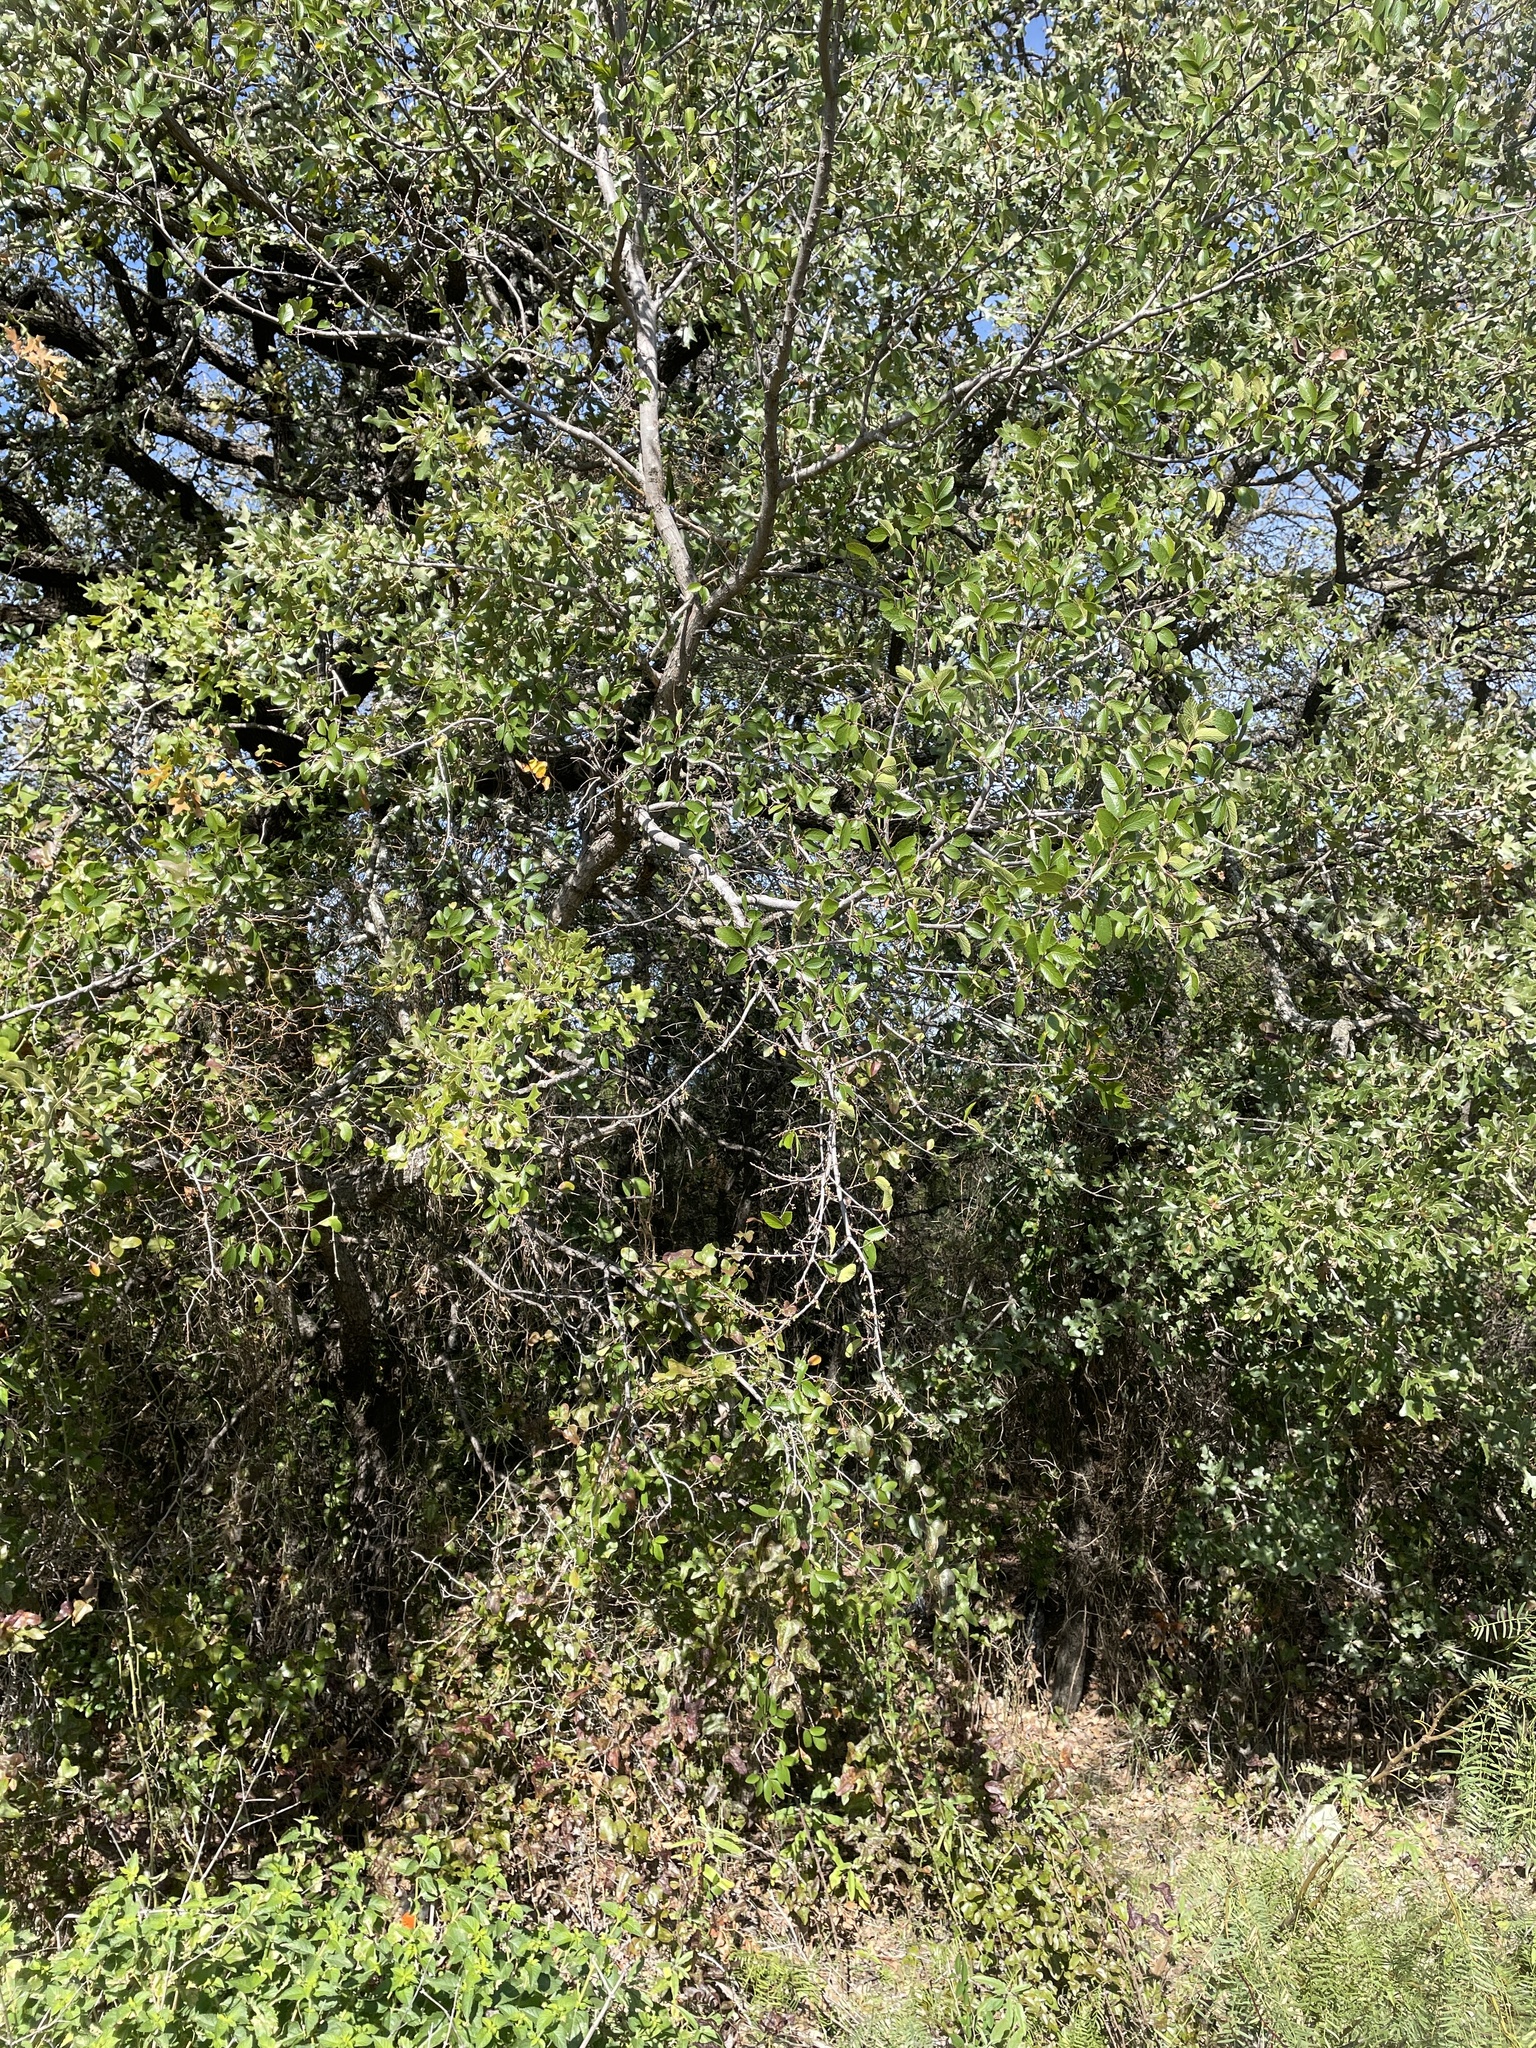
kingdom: Plantae
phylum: Tracheophyta
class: Magnoliopsida
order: Rosales
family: Ulmaceae
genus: Ulmus
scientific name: Ulmus crassifolia
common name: Basket elm
